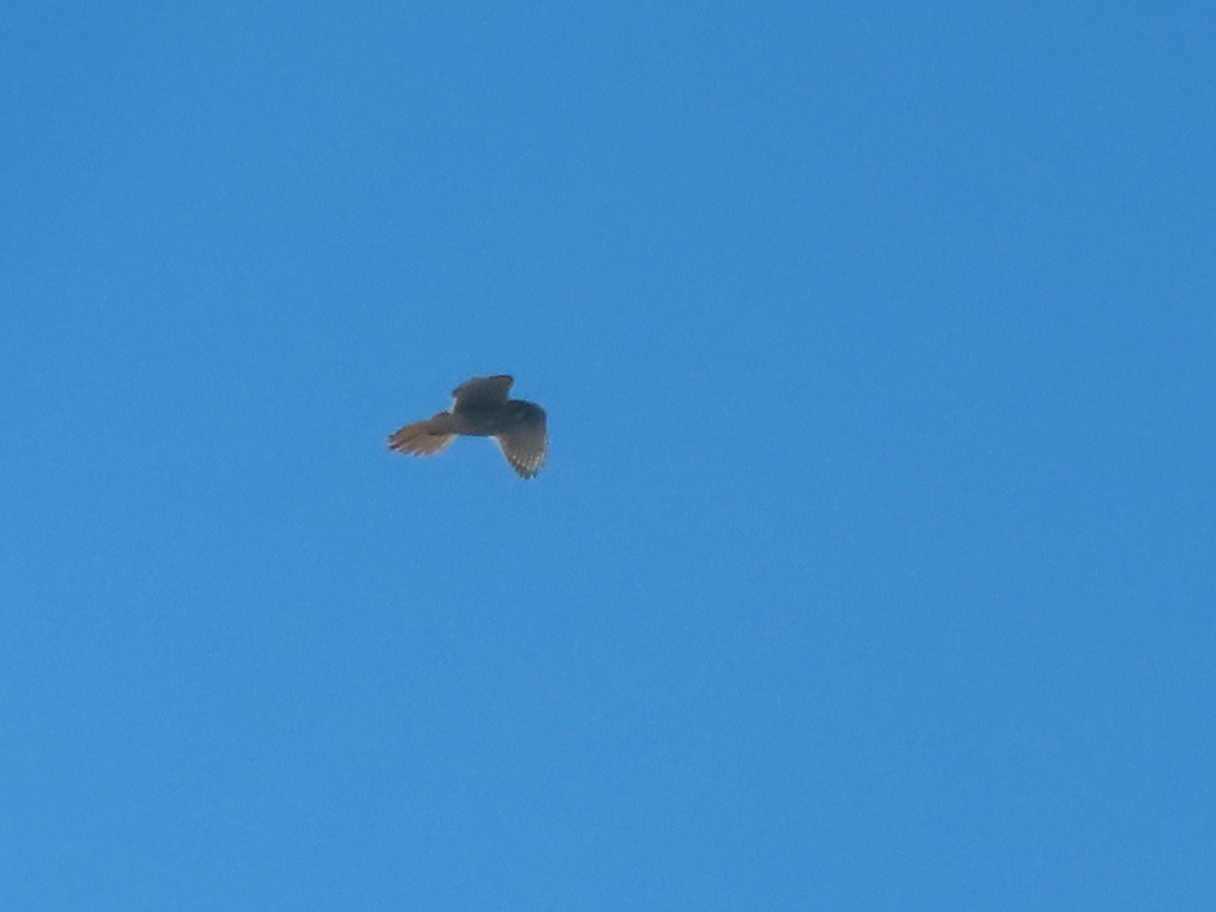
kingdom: Animalia
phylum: Chordata
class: Aves
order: Accipitriformes
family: Accipitridae
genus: Buteo
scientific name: Buteo jamaicensis
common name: Red-tailed hawk
